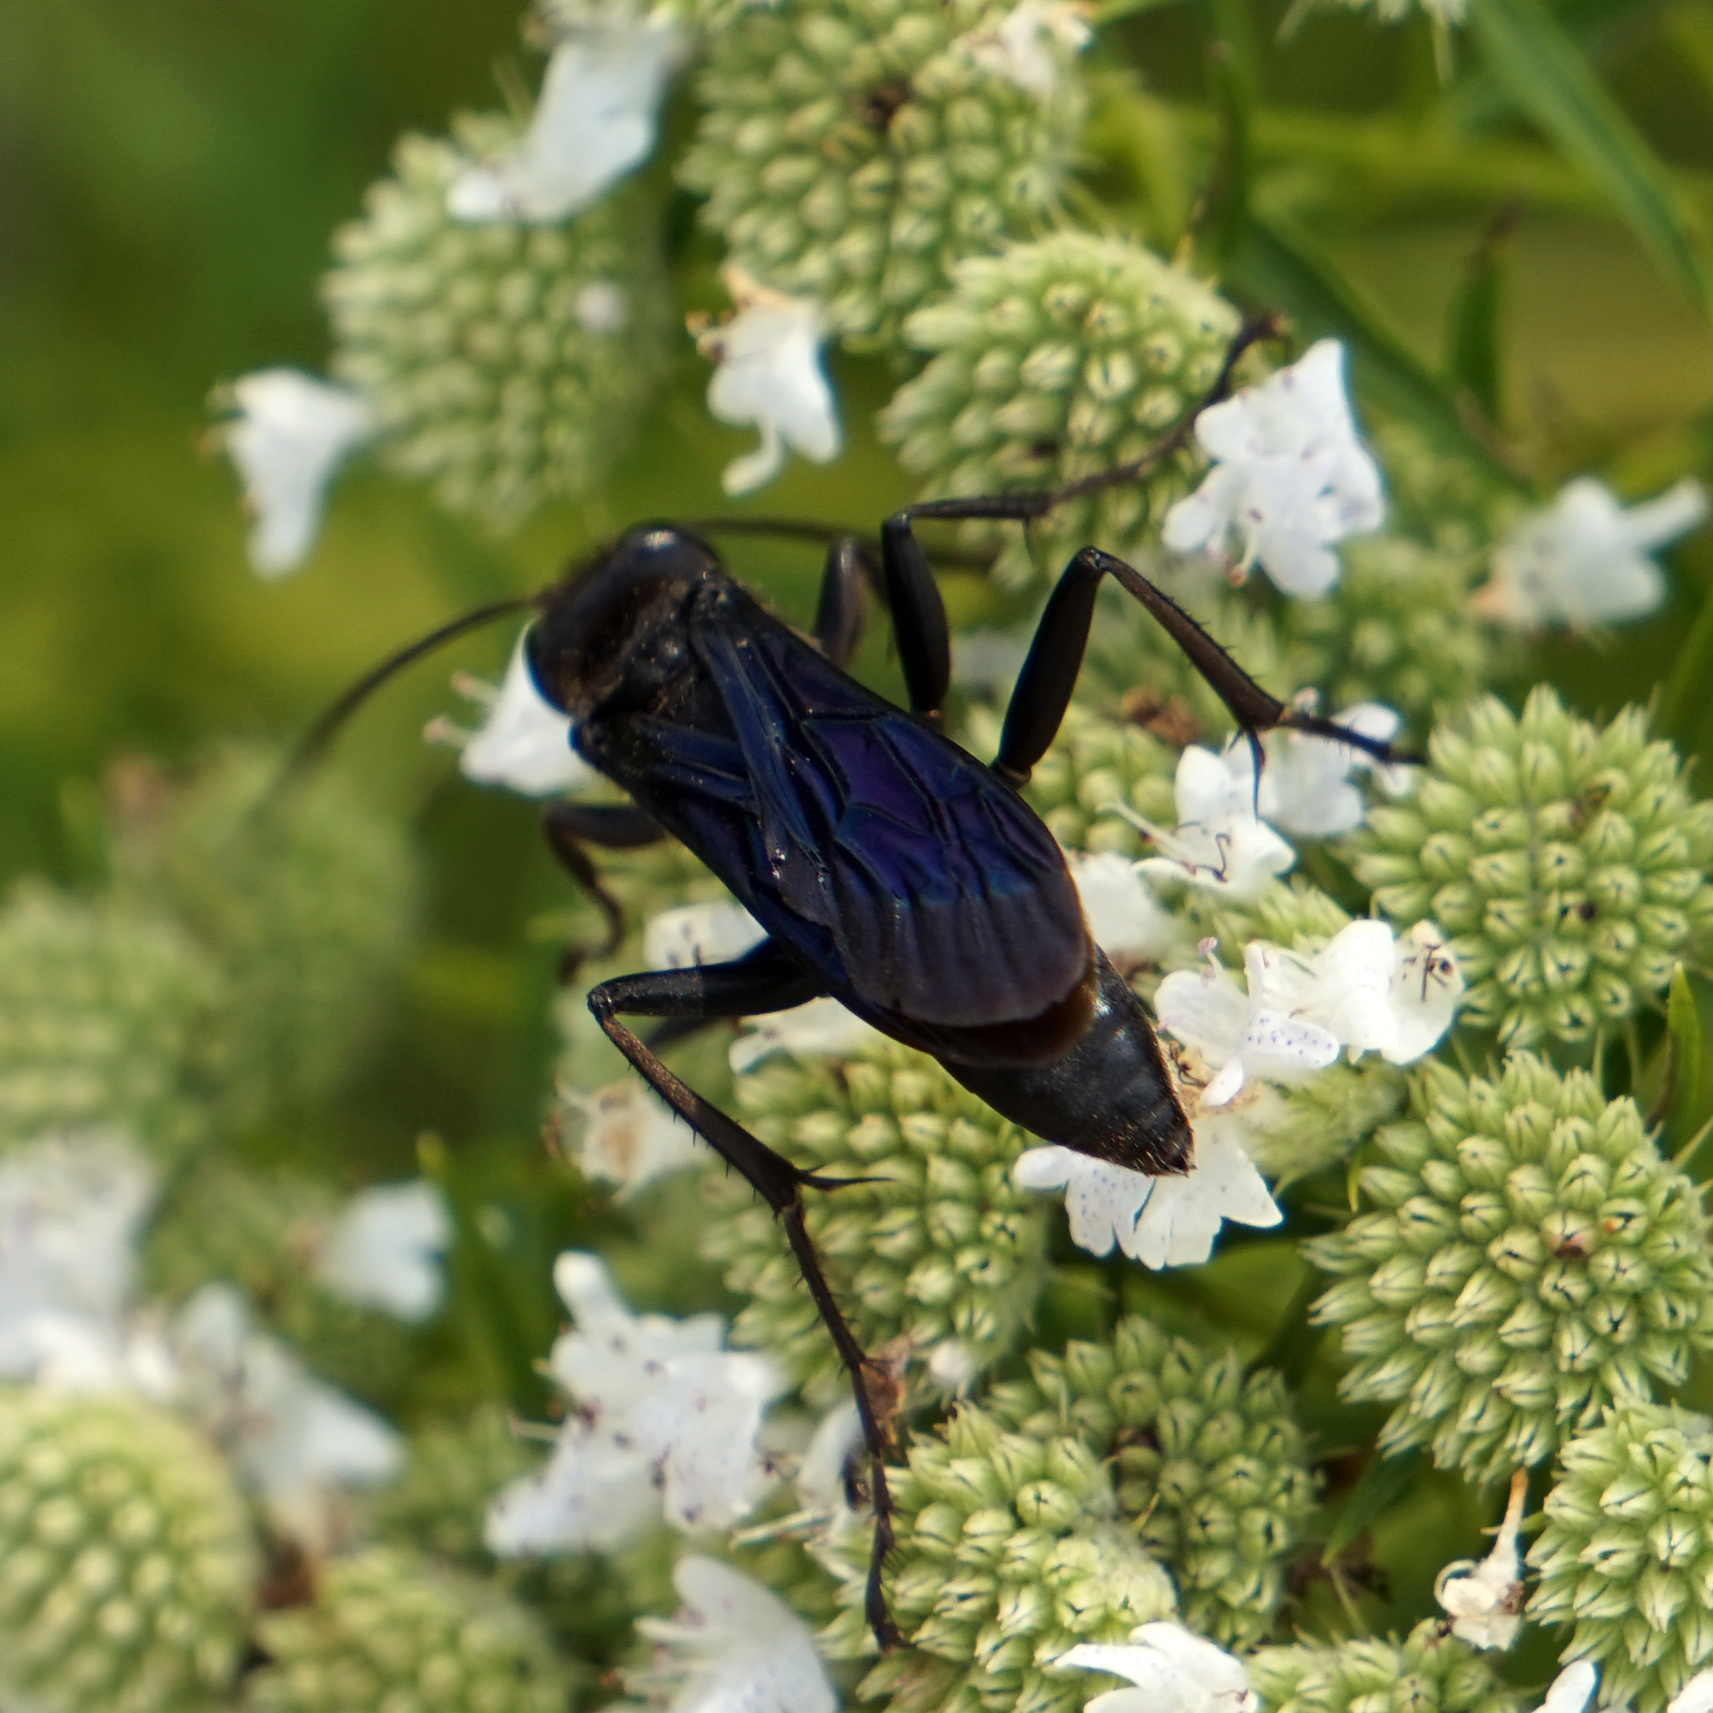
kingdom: Animalia
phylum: Arthropoda
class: Insecta
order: Hymenoptera
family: Sphecidae
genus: Sphex
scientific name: Sphex pensylvanicus
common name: Great black digger wasp
